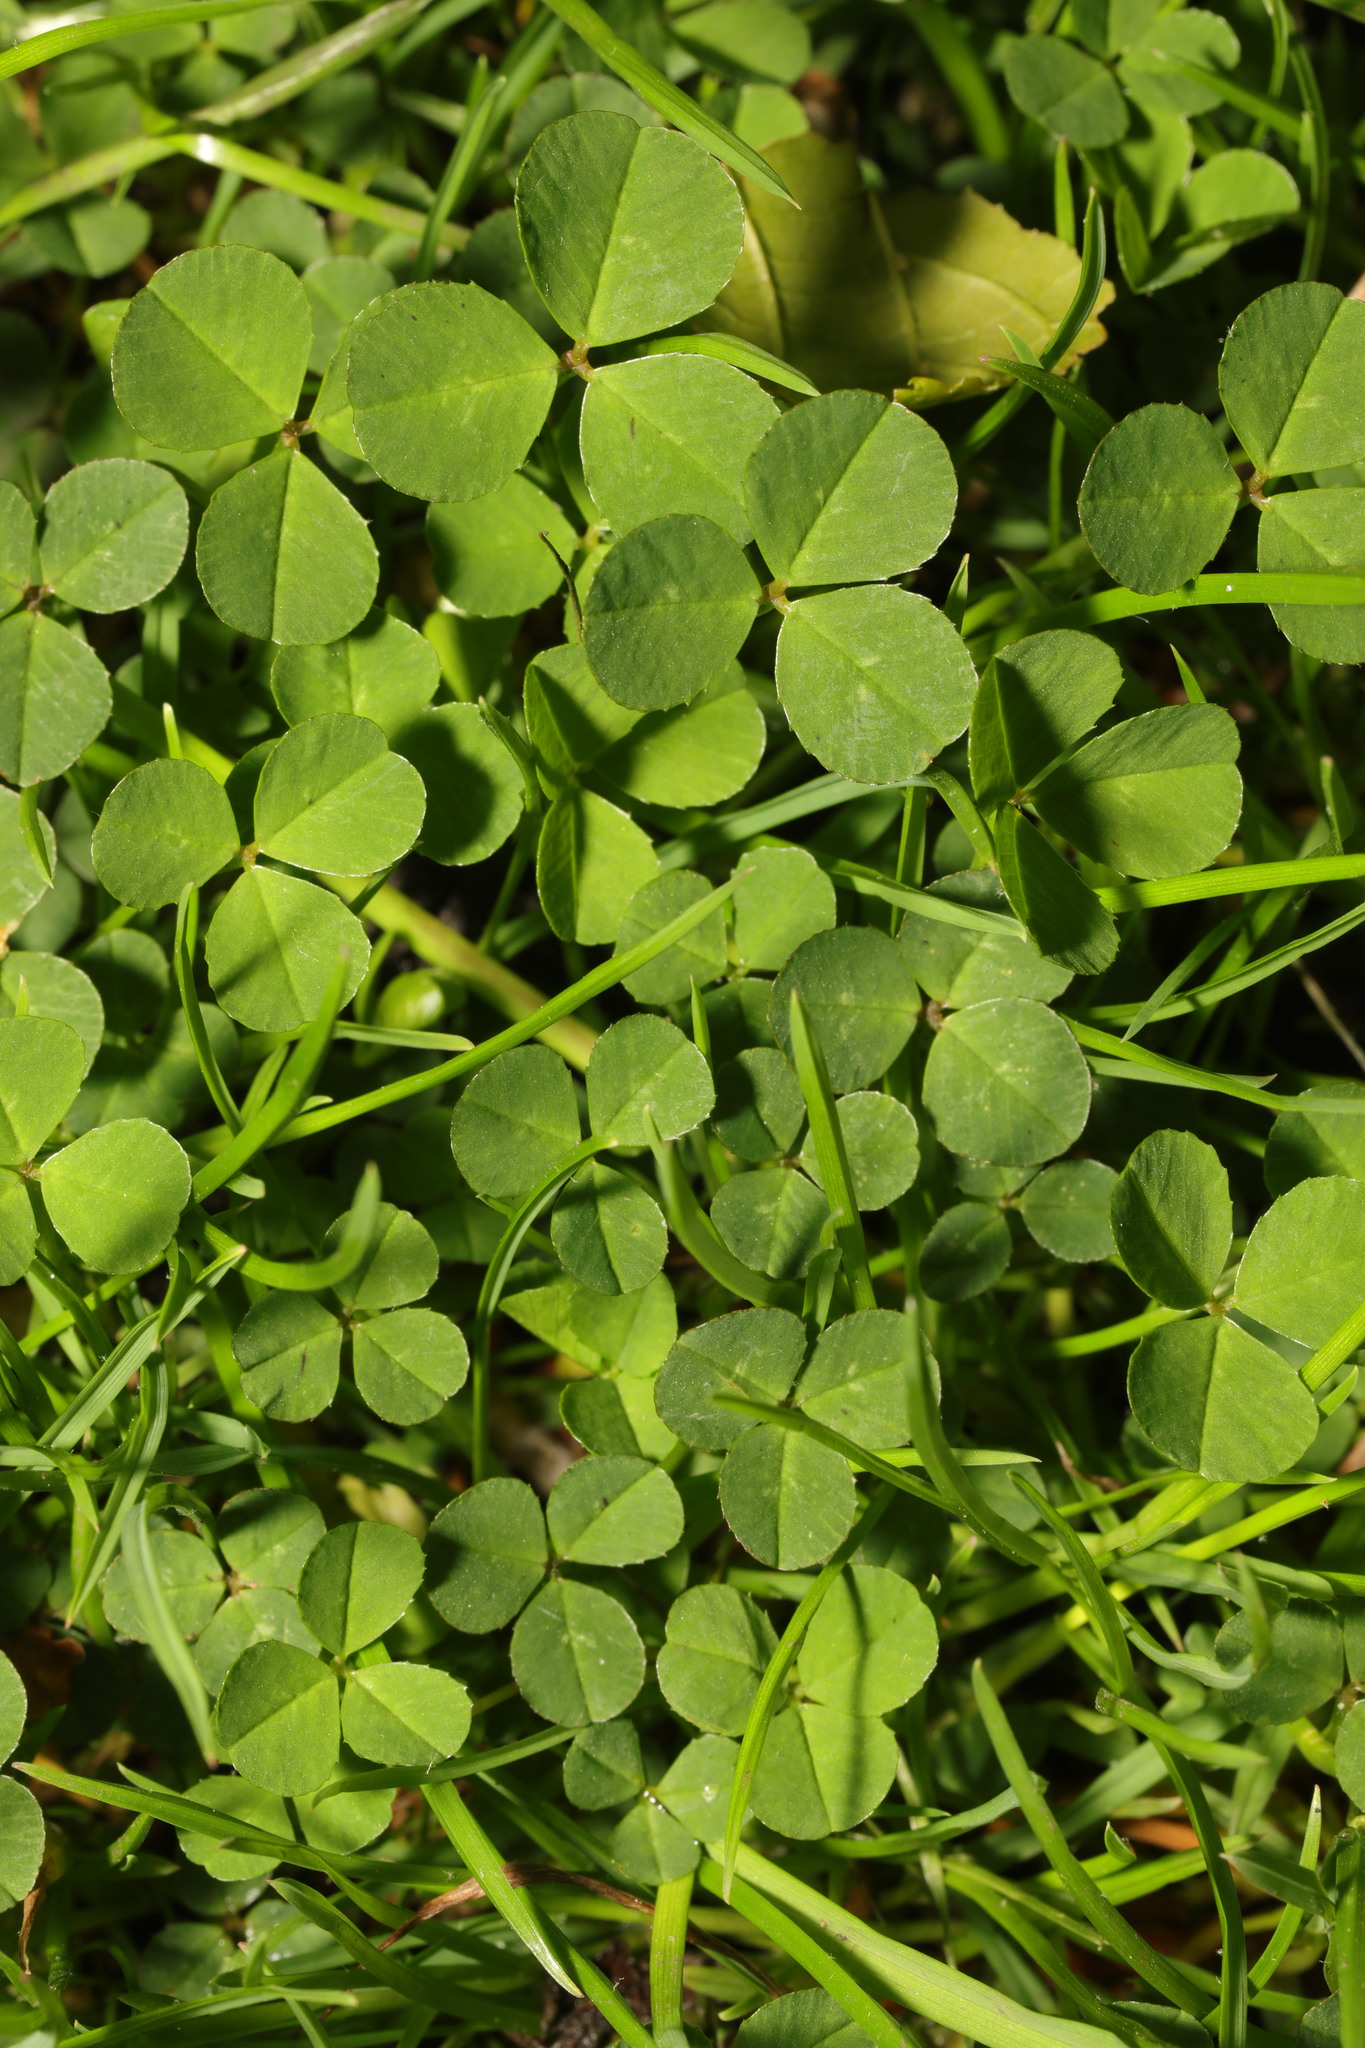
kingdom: Plantae
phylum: Tracheophyta
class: Magnoliopsida
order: Fabales
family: Fabaceae
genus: Trifolium
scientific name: Trifolium repens
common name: White clover
